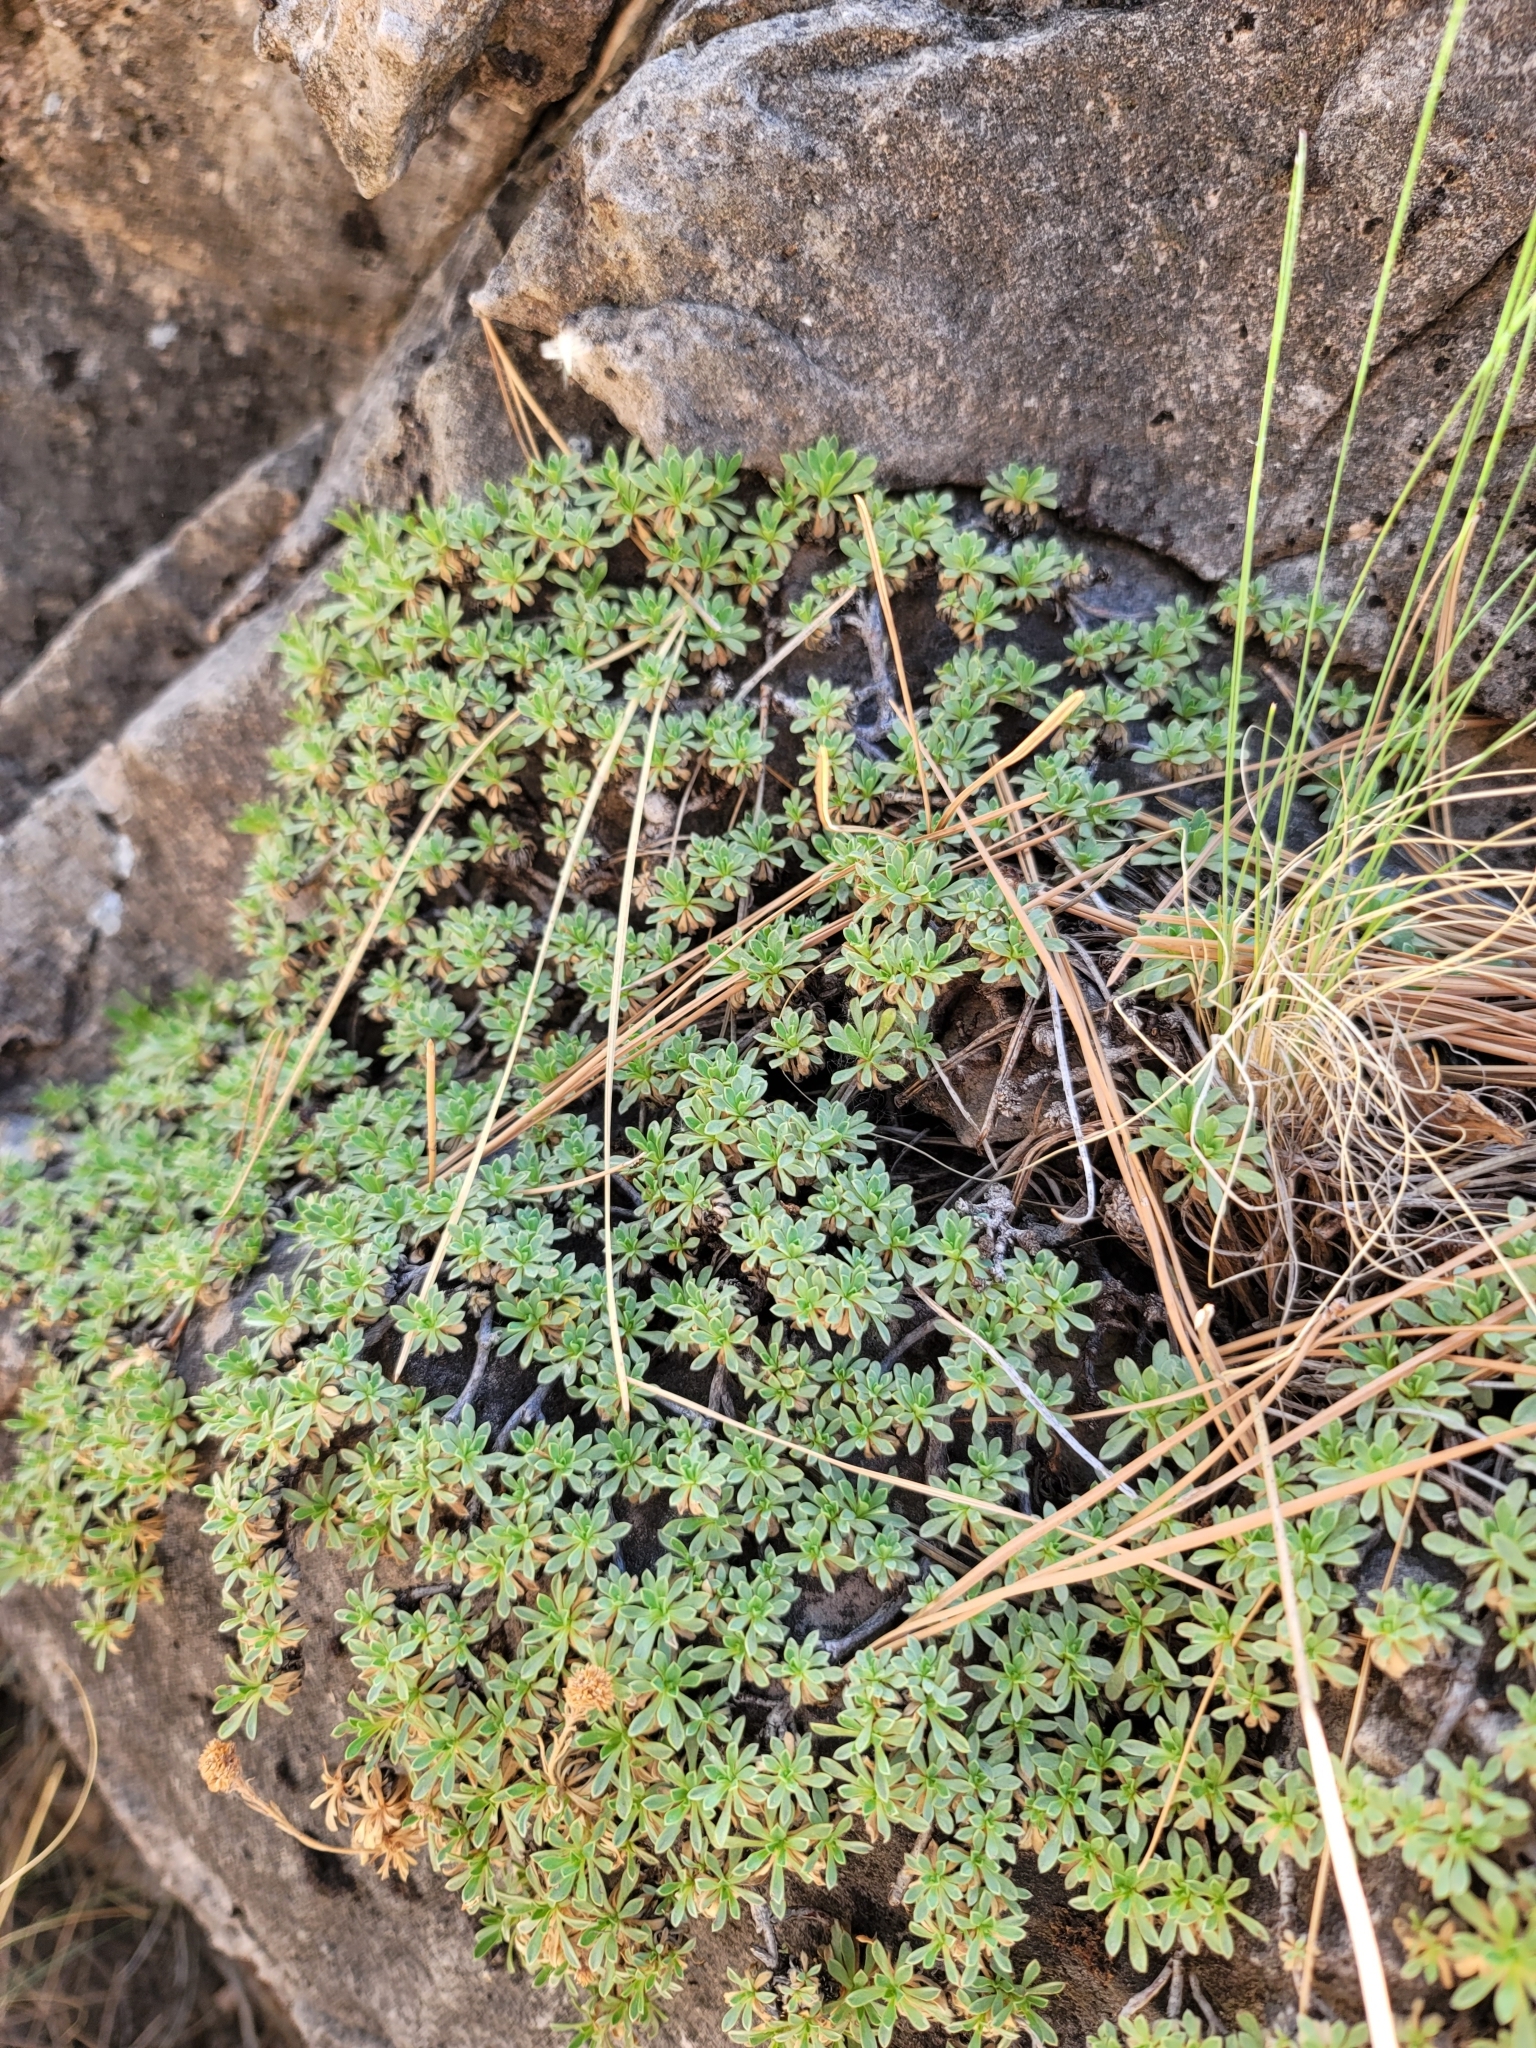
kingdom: Plantae
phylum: Tracheophyta
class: Magnoliopsida
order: Rosales
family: Rosaceae
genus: Petrophytum
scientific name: Petrophytum caespitosum
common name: Mat rockspirea
